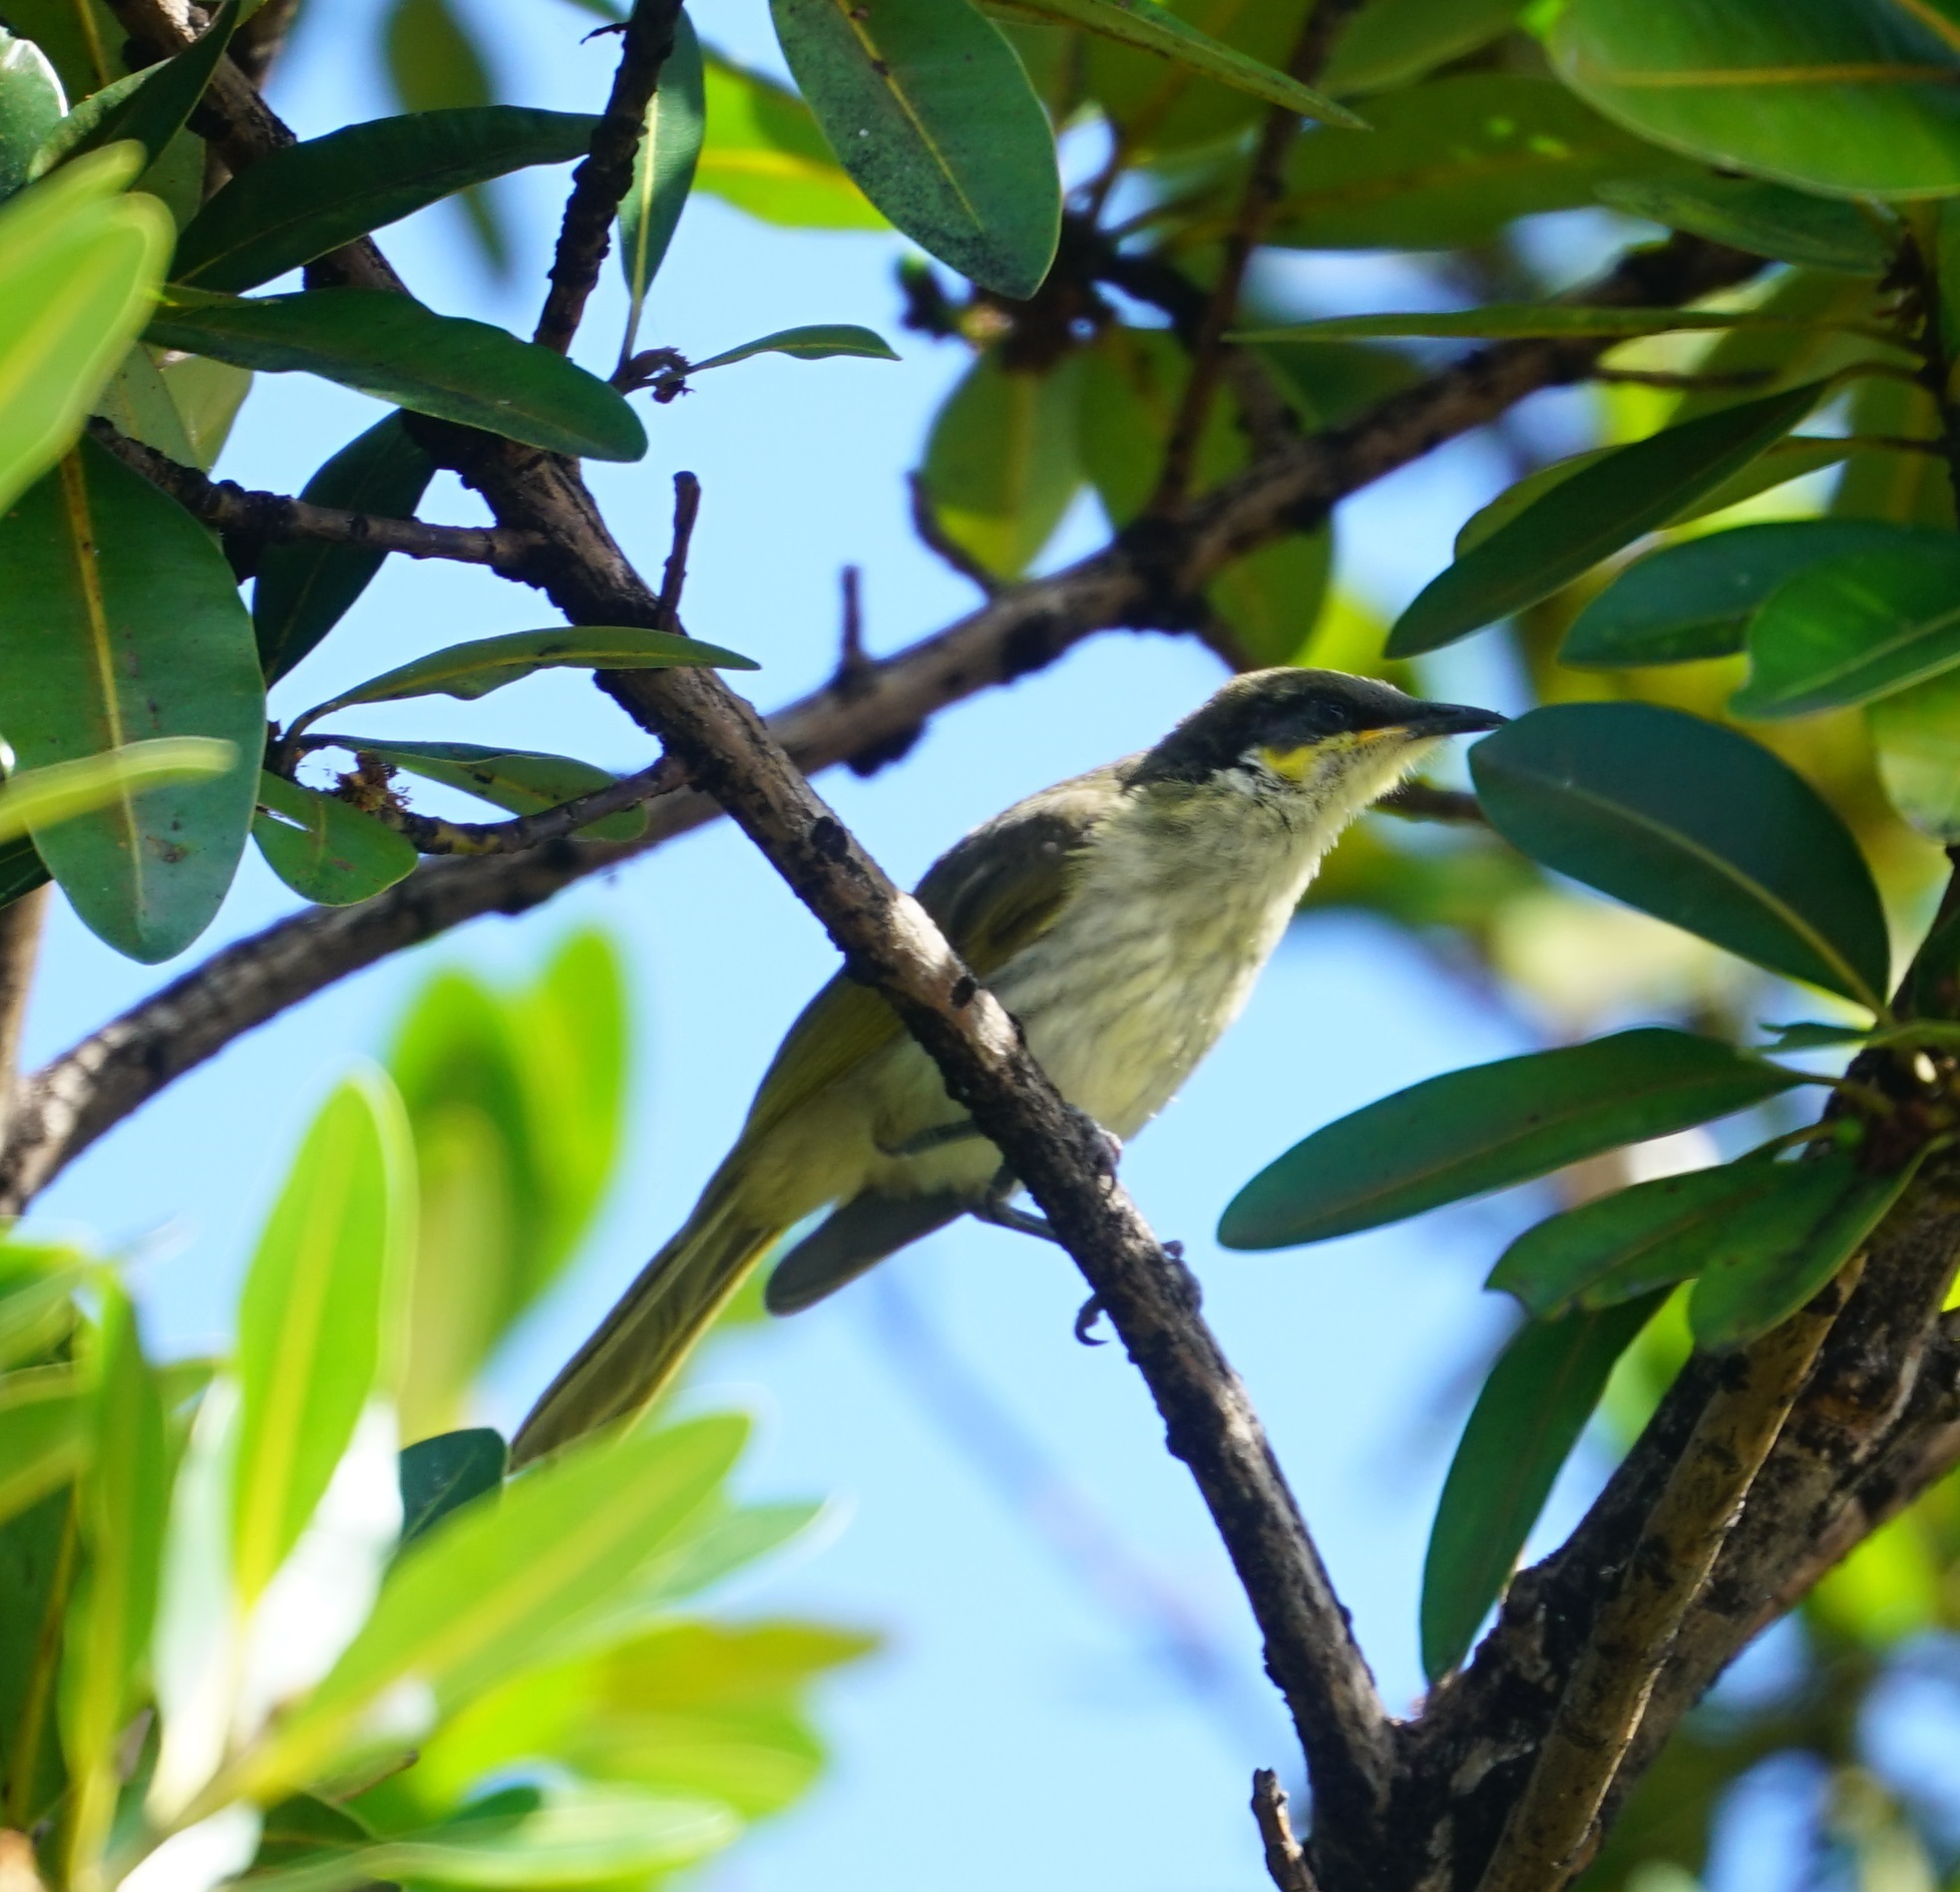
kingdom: Animalia
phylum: Chordata
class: Aves
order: Passeriformes
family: Meliphagidae
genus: Gavicalis
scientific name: Gavicalis versicolor
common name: Varied honeyeater
